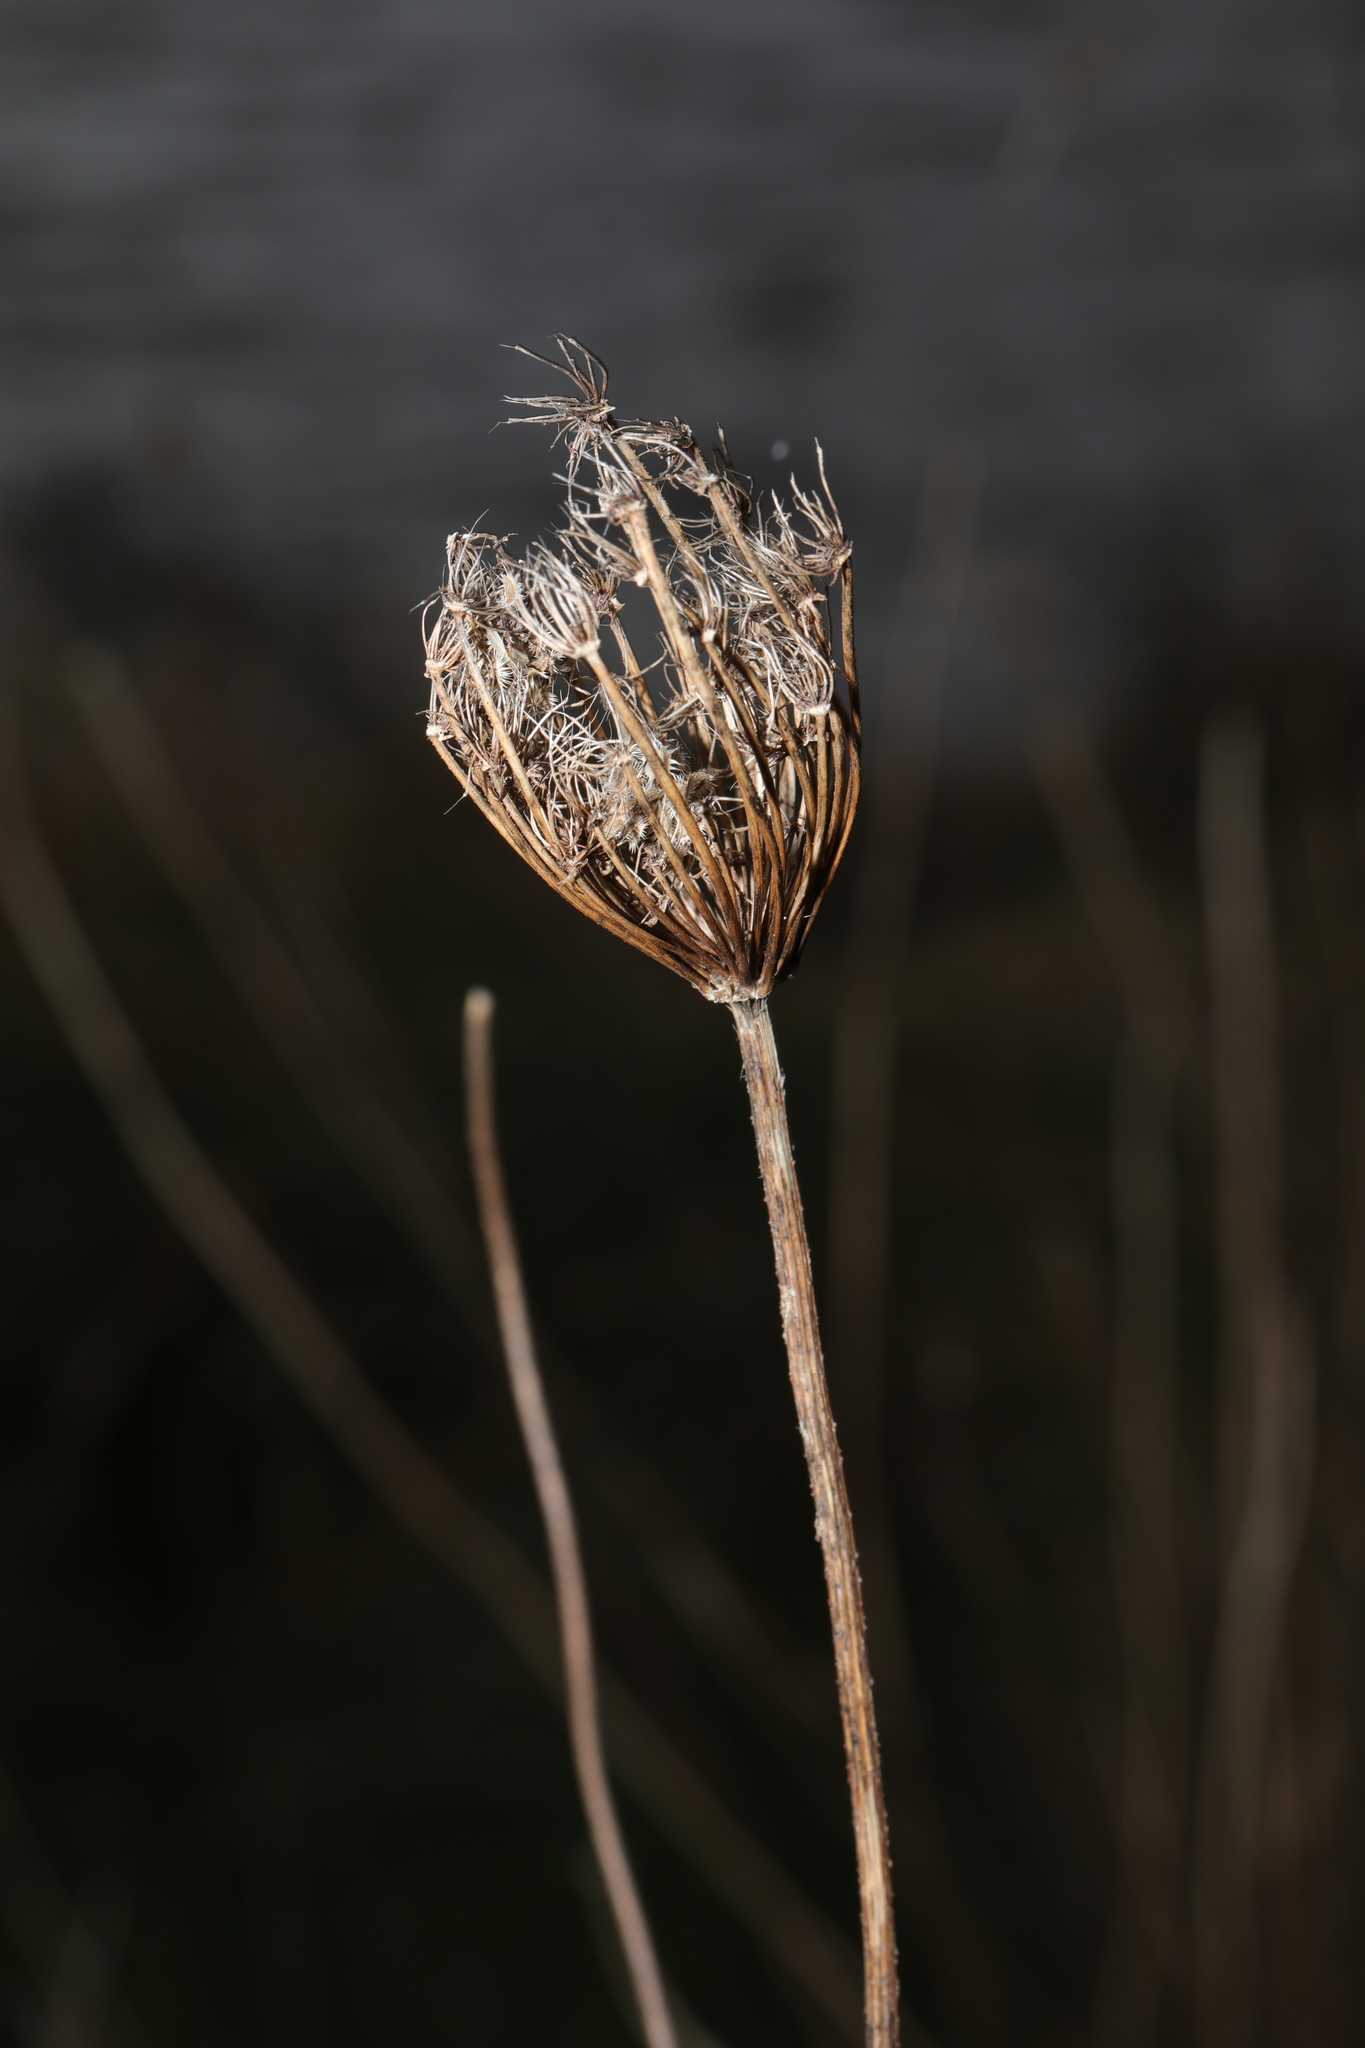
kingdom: Plantae
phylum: Tracheophyta
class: Magnoliopsida
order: Apiales
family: Apiaceae
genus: Daucus
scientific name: Daucus carota
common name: Wild carrot
